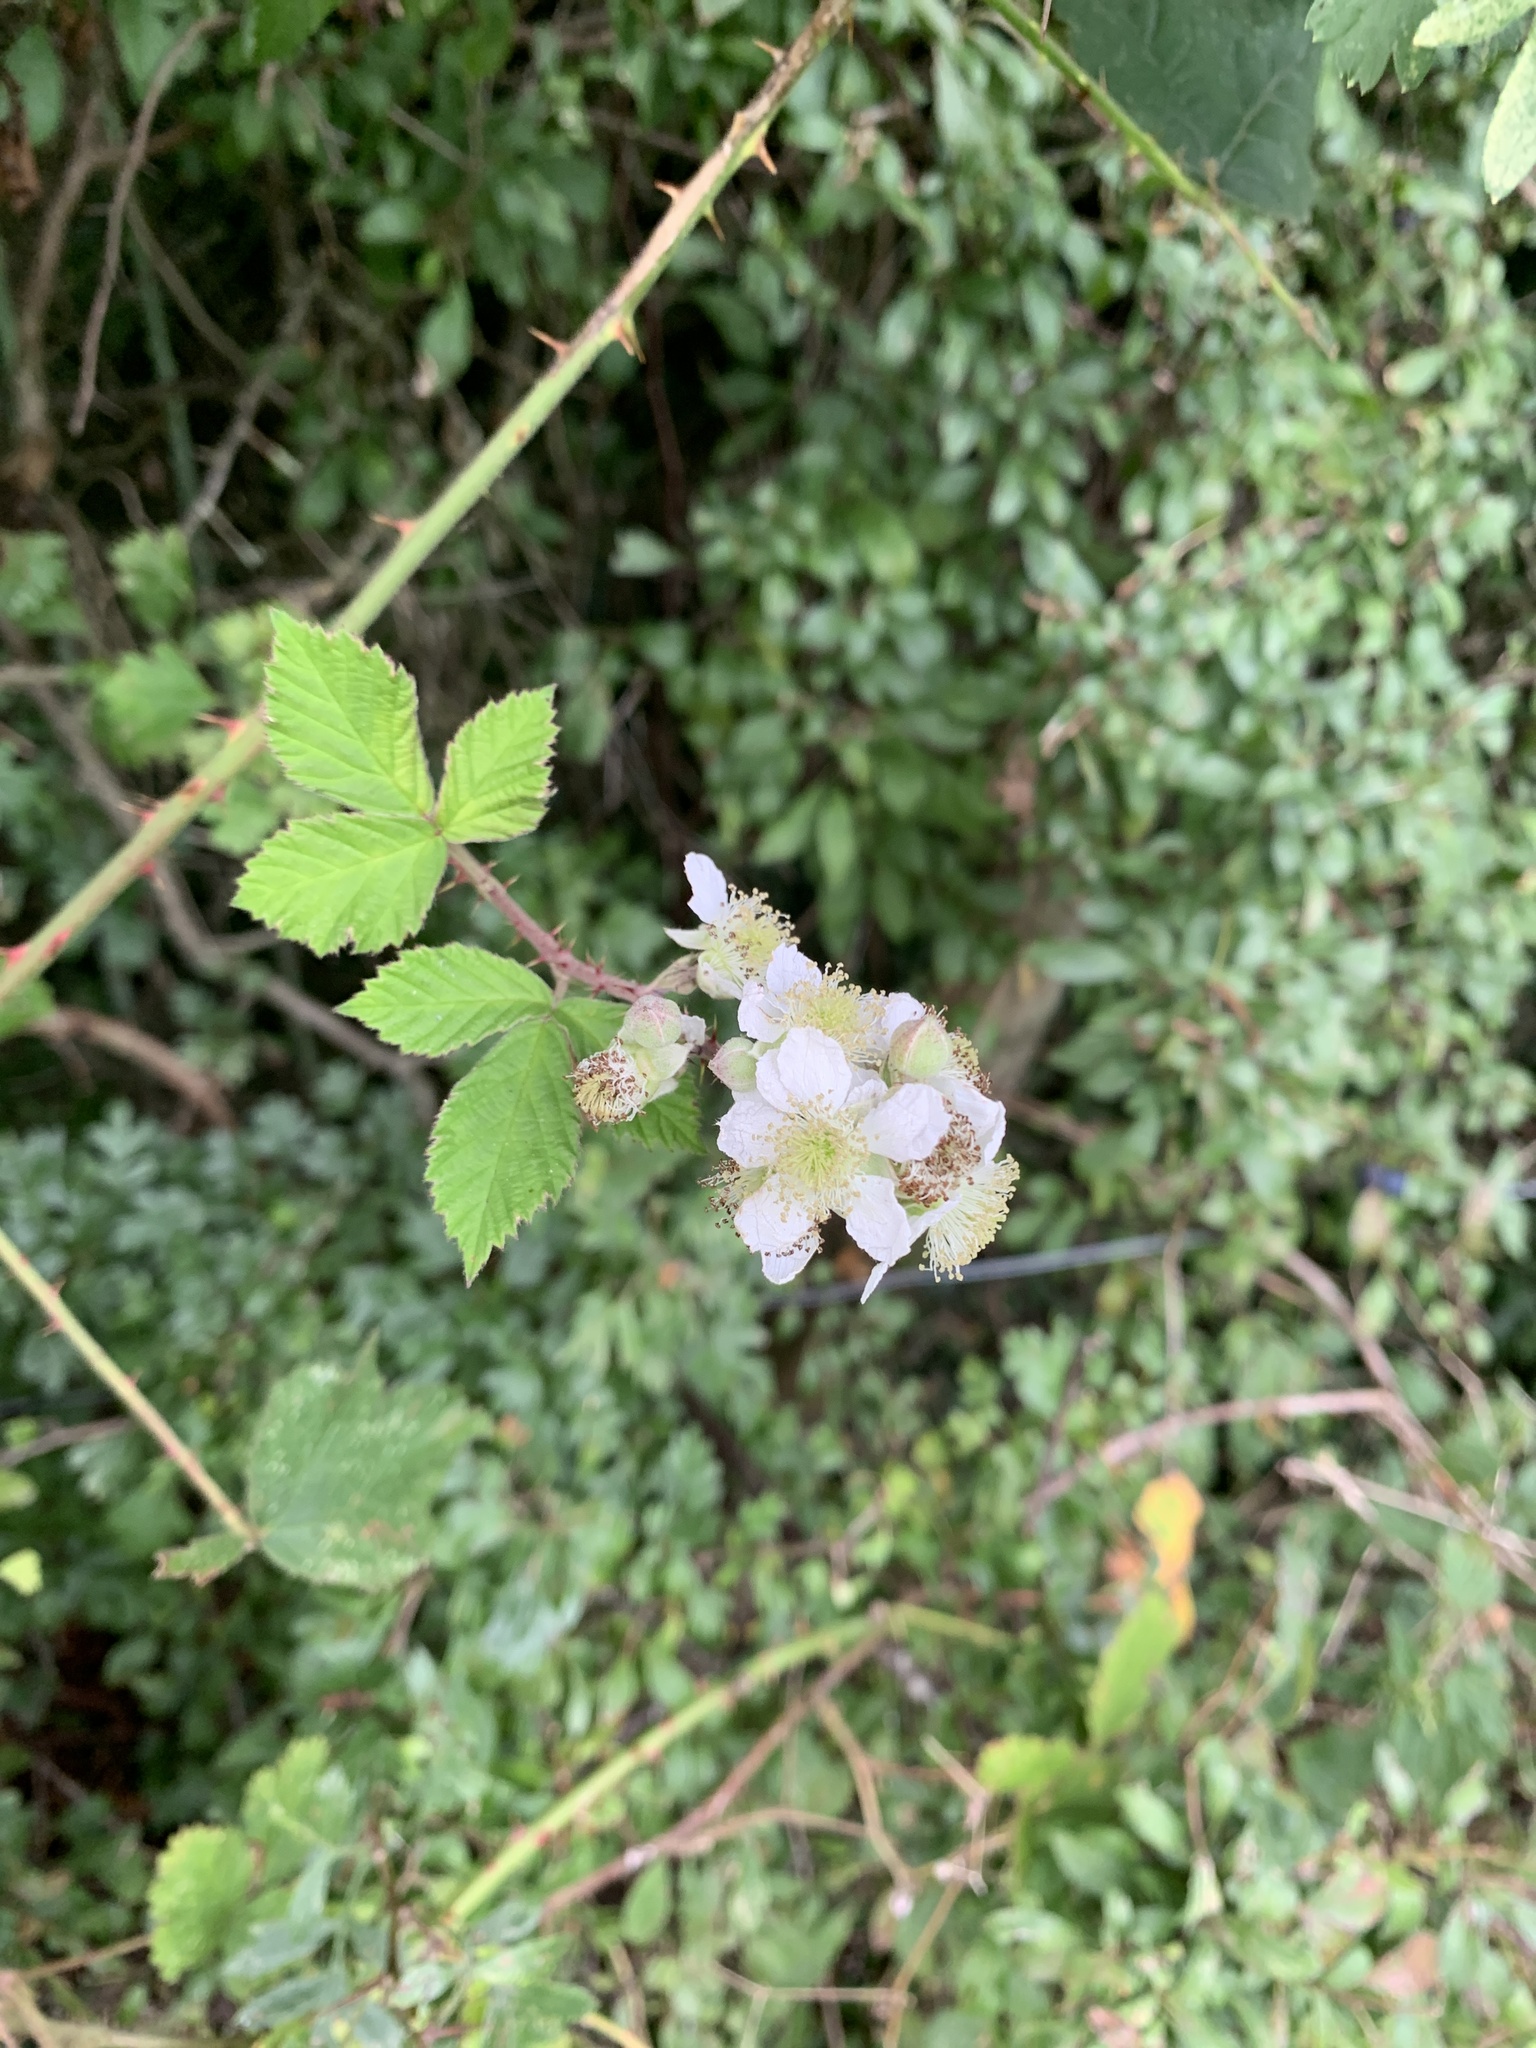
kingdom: Plantae
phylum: Tracheophyta
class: Magnoliopsida
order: Rosales
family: Rosaceae
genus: Rubus
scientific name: Rubus fruticosus
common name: Blackberry, bramble
